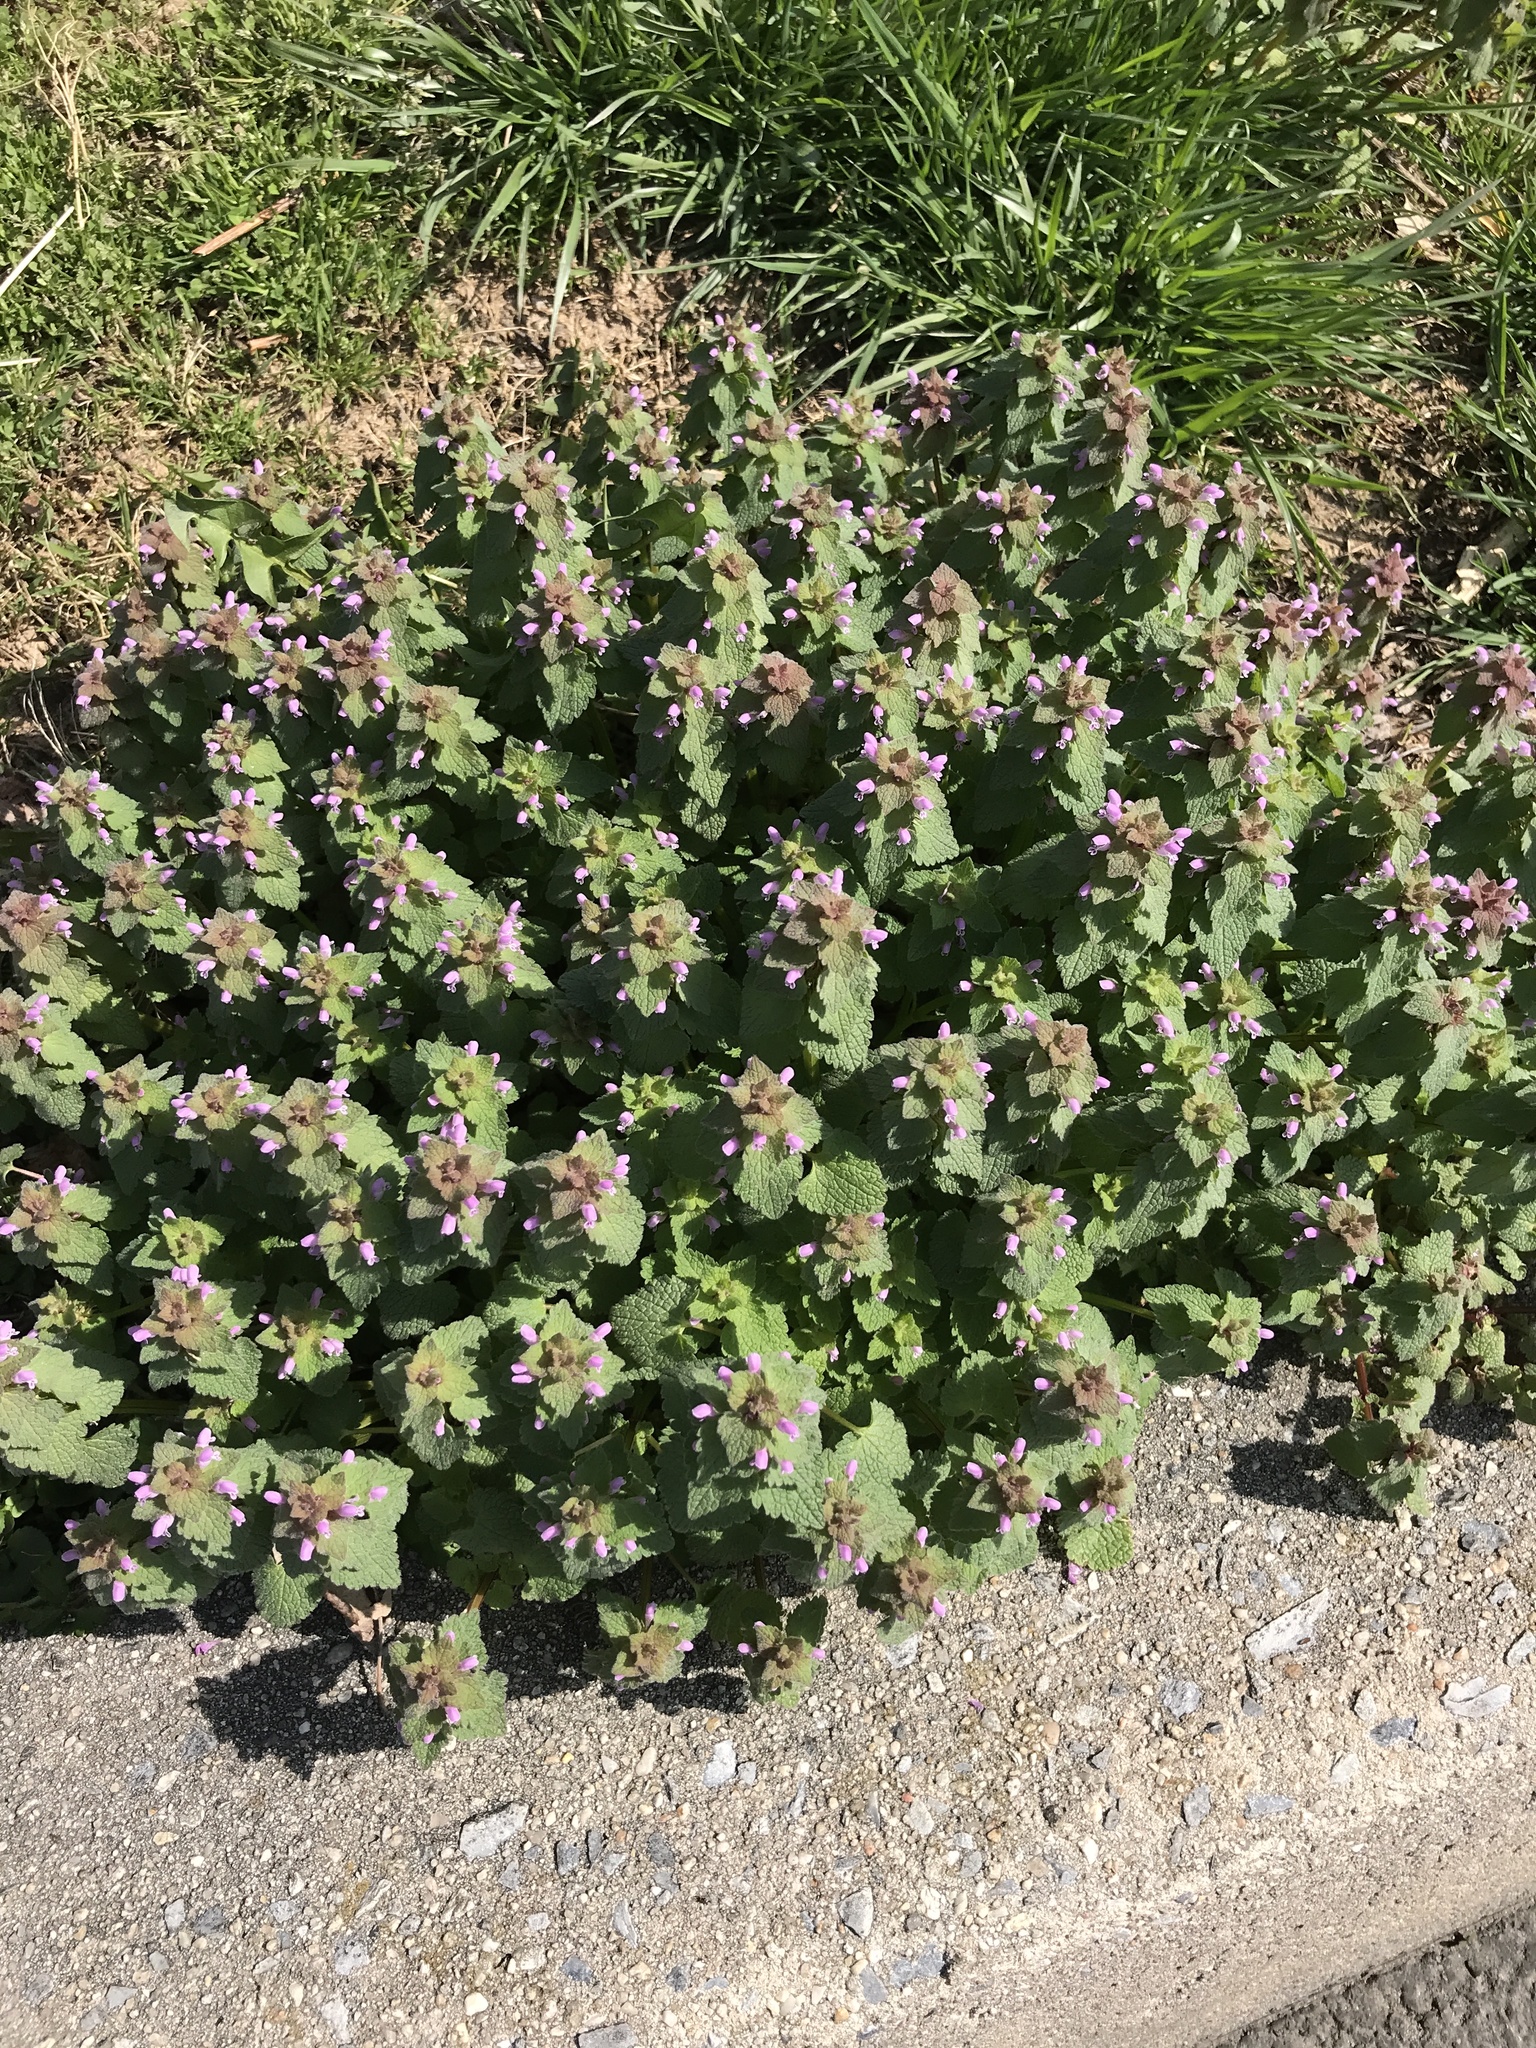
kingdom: Plantae
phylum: Tracheophyta
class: Magnoliopsida
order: Lamiales
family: Lamiaceae
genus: Lamium
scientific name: Lamium purpureum
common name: Red dead-nettle
